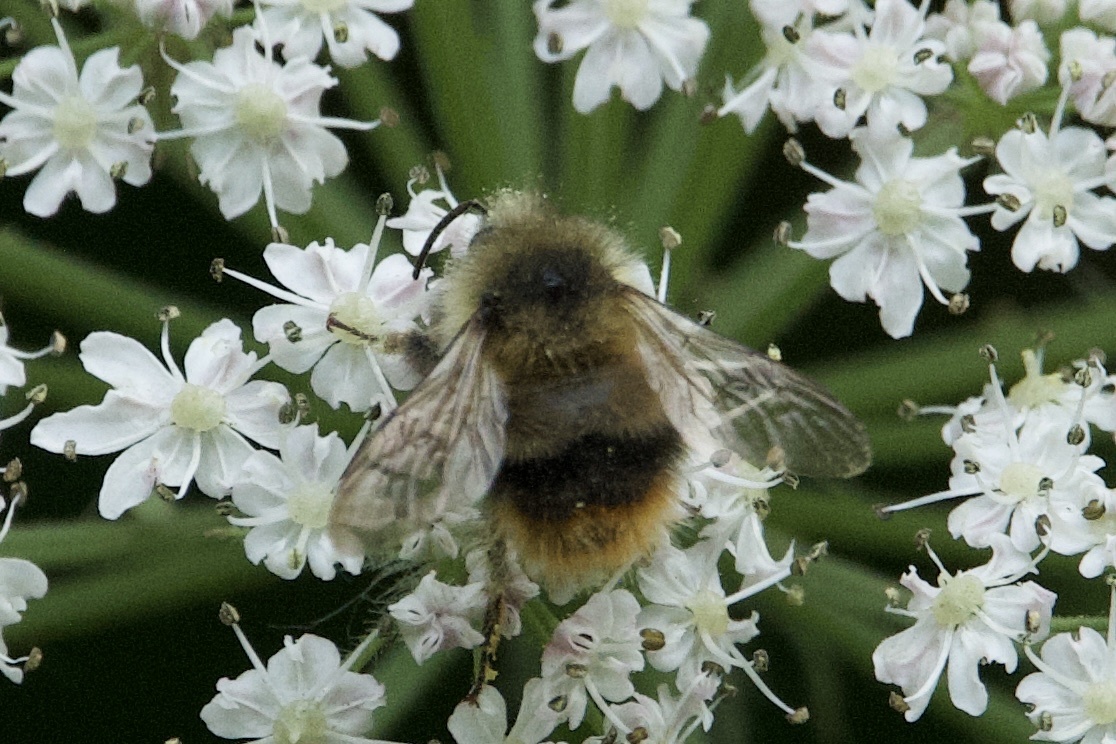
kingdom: Animalia
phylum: Arthropoda
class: Insecta
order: Hymenoptera
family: Apidae
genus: Bombus
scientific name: Bombus mixtus
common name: Fuzzy-horned bumble bee
